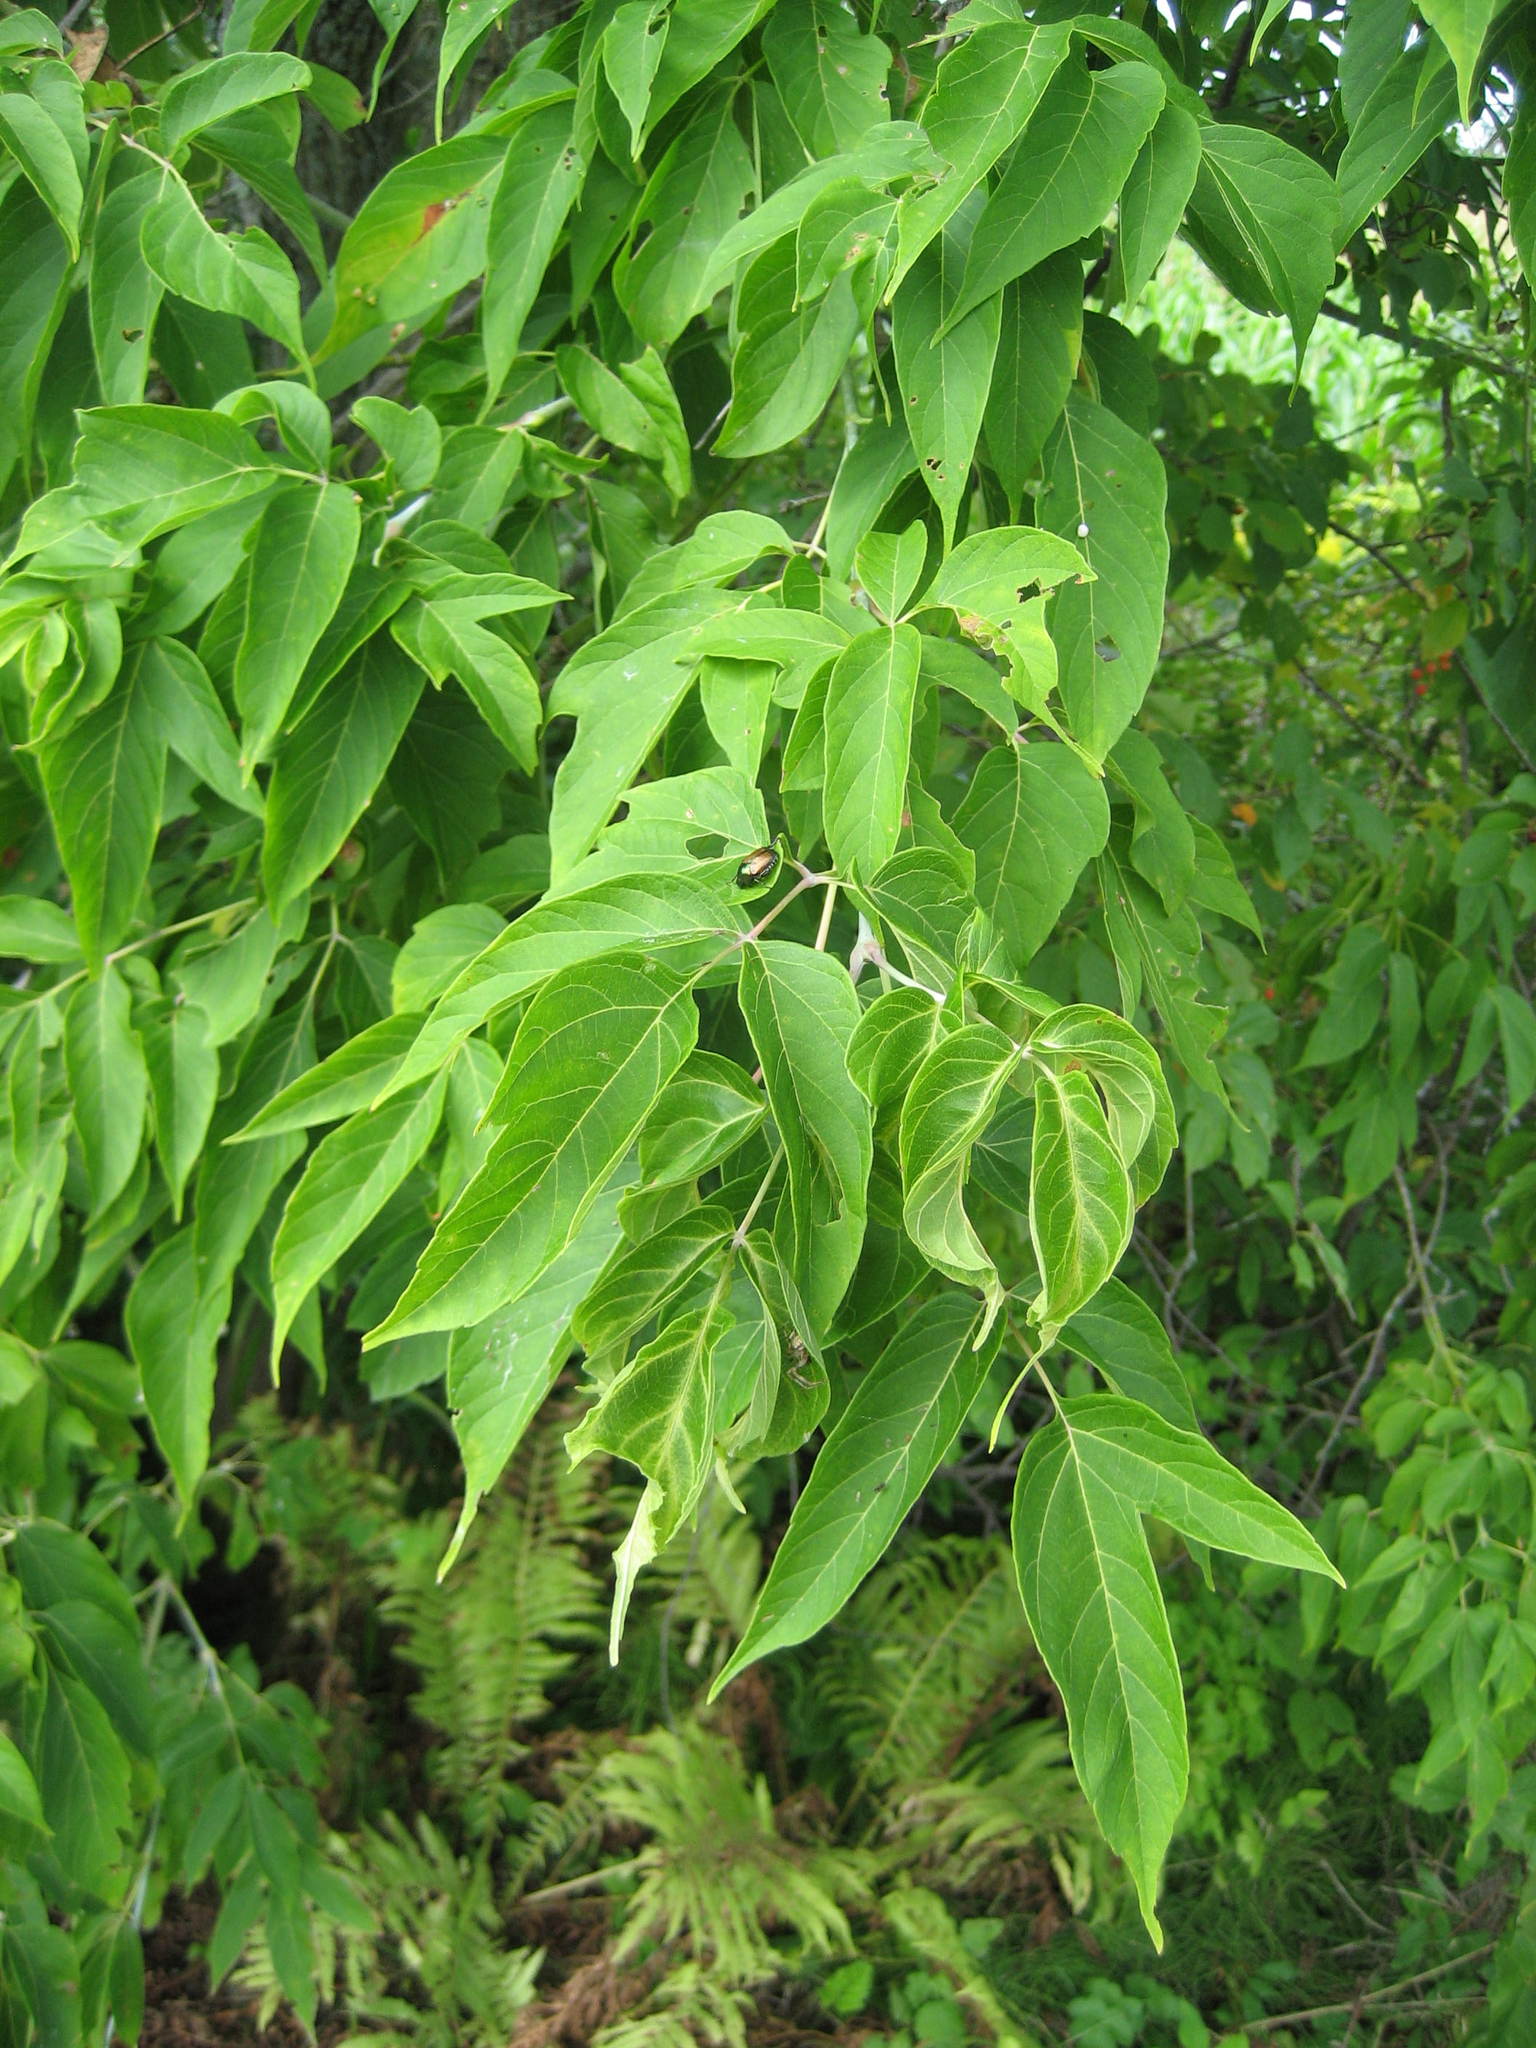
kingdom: Plantae
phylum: Tracheophyta
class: Magnoliopsida
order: Sapindales
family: Sapindaceae
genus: Acer
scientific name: Acer negundo
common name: Ashleaf maple
